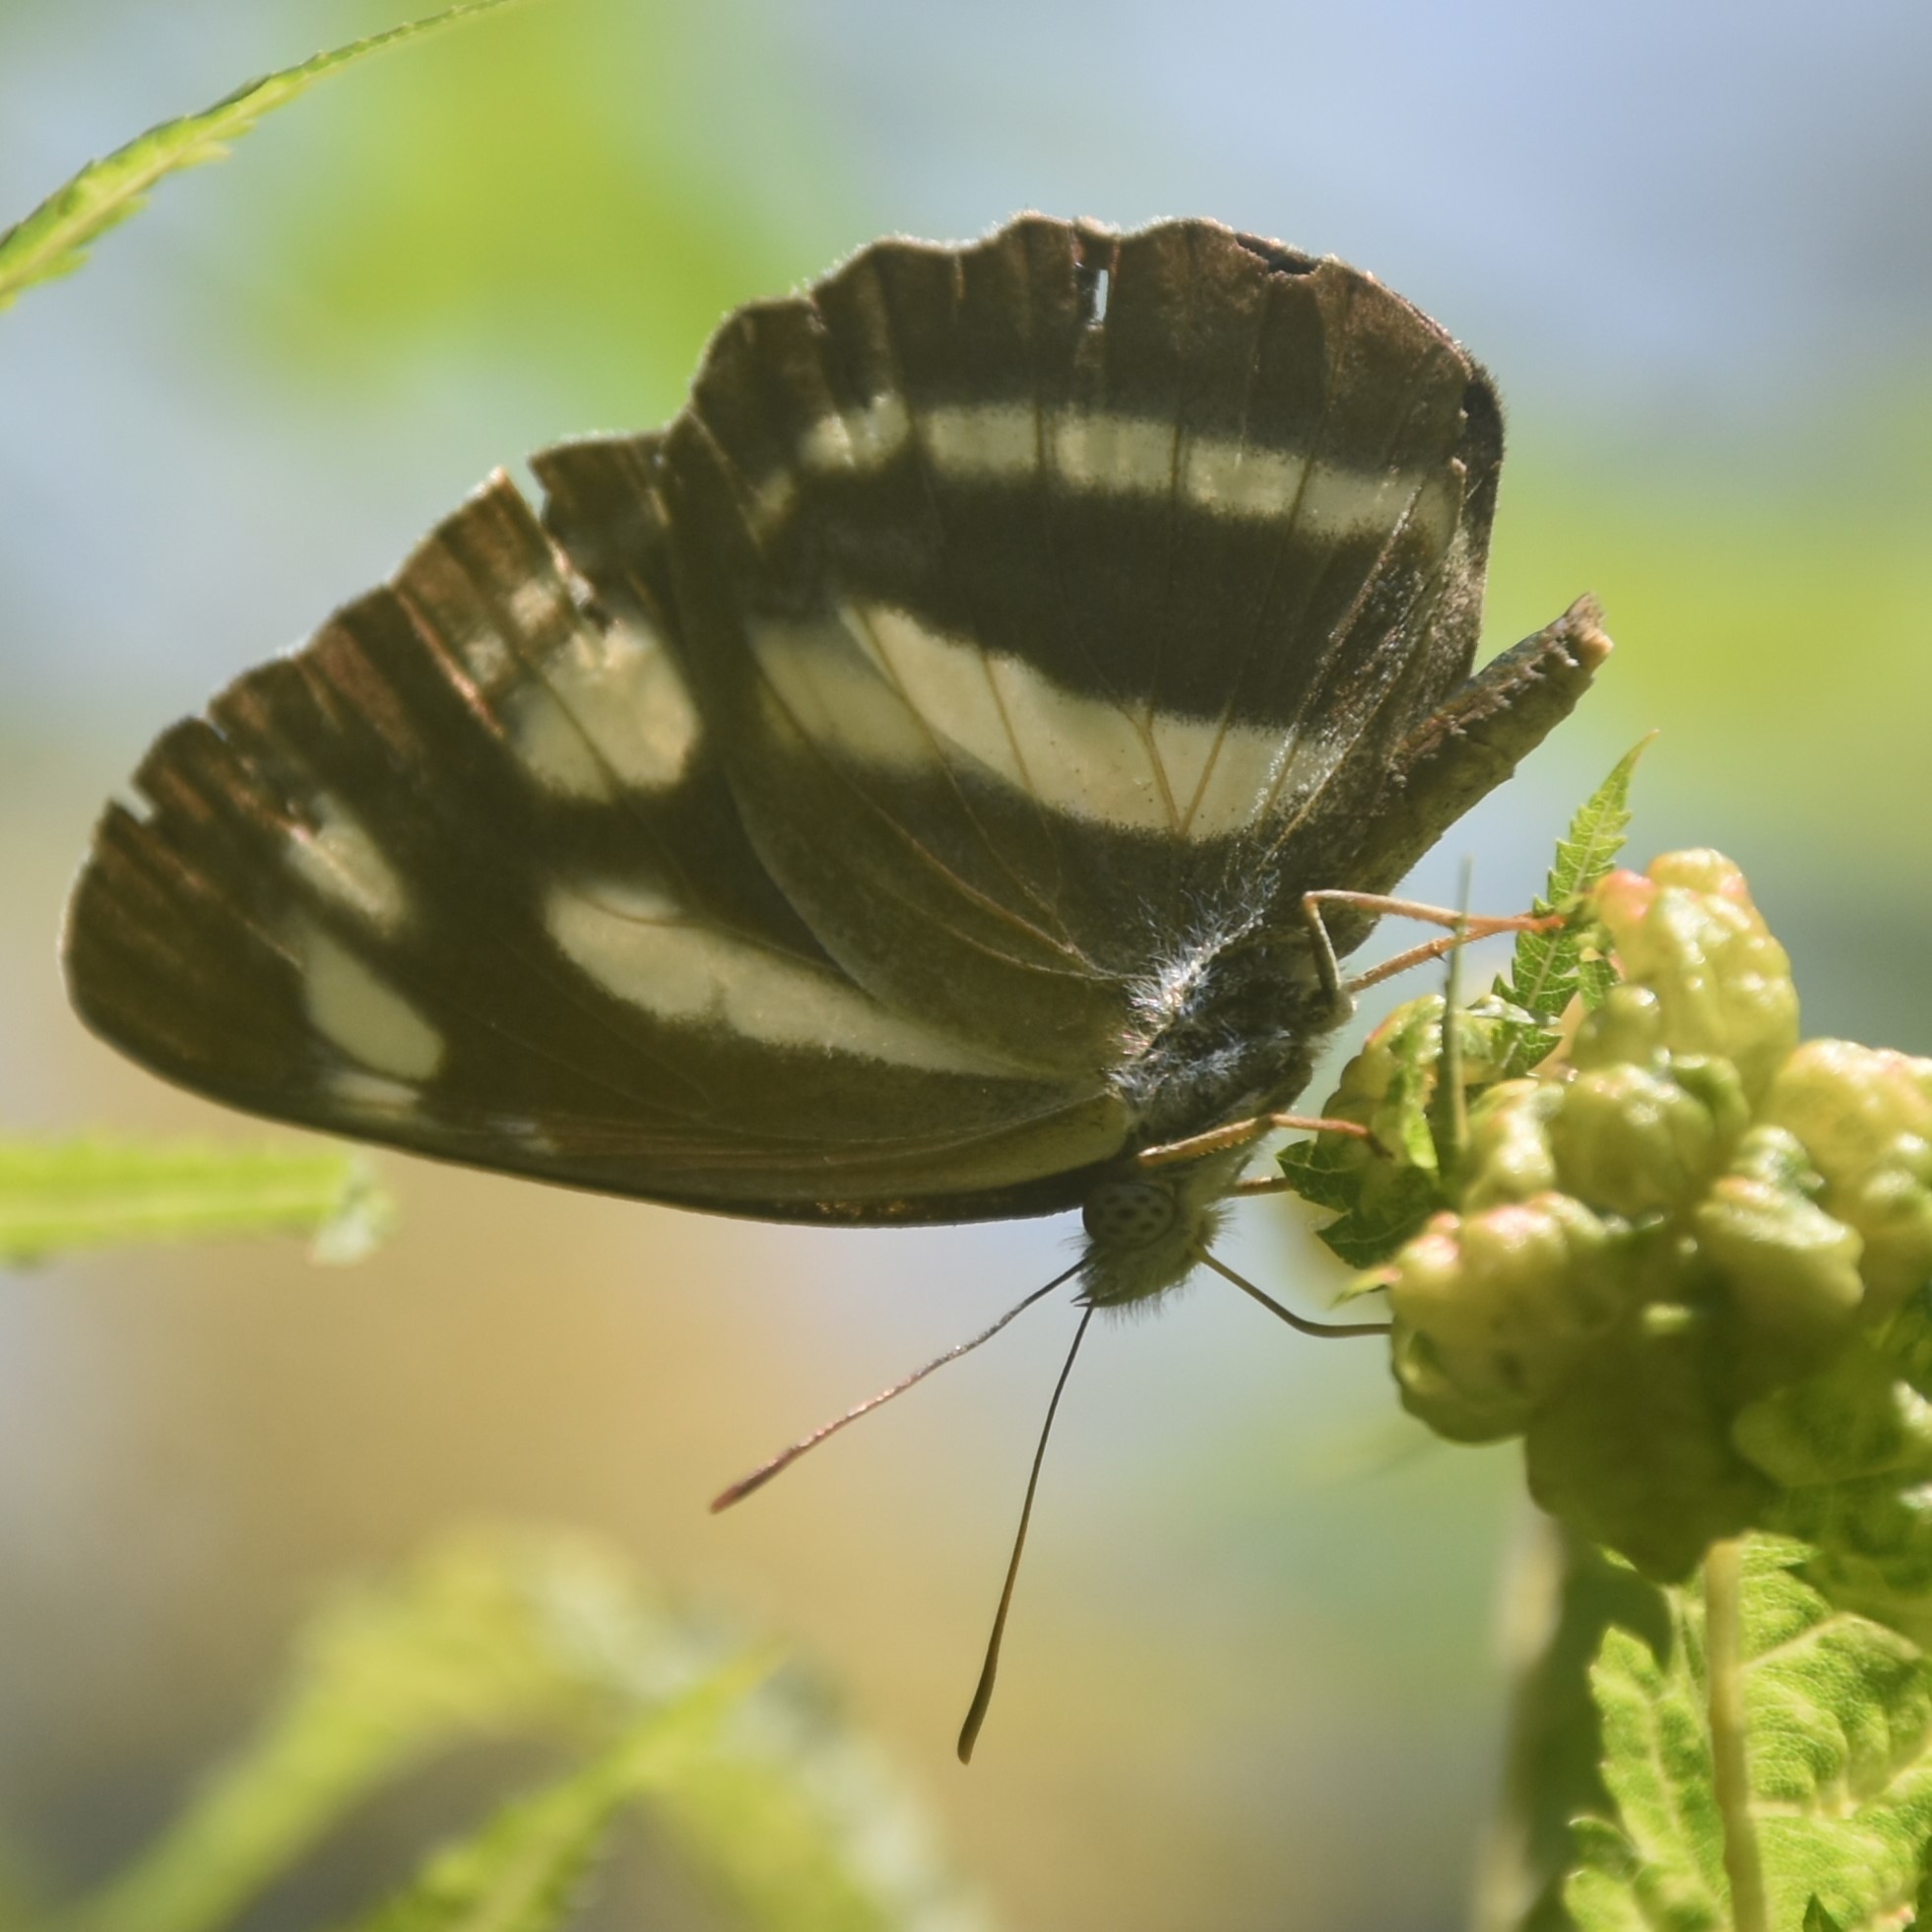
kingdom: Animalia
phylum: Arthropoda
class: Insecta
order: Lepidoptera
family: Nymphalidae
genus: Neptis
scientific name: Neptis narayana
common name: Broadstick sailer
